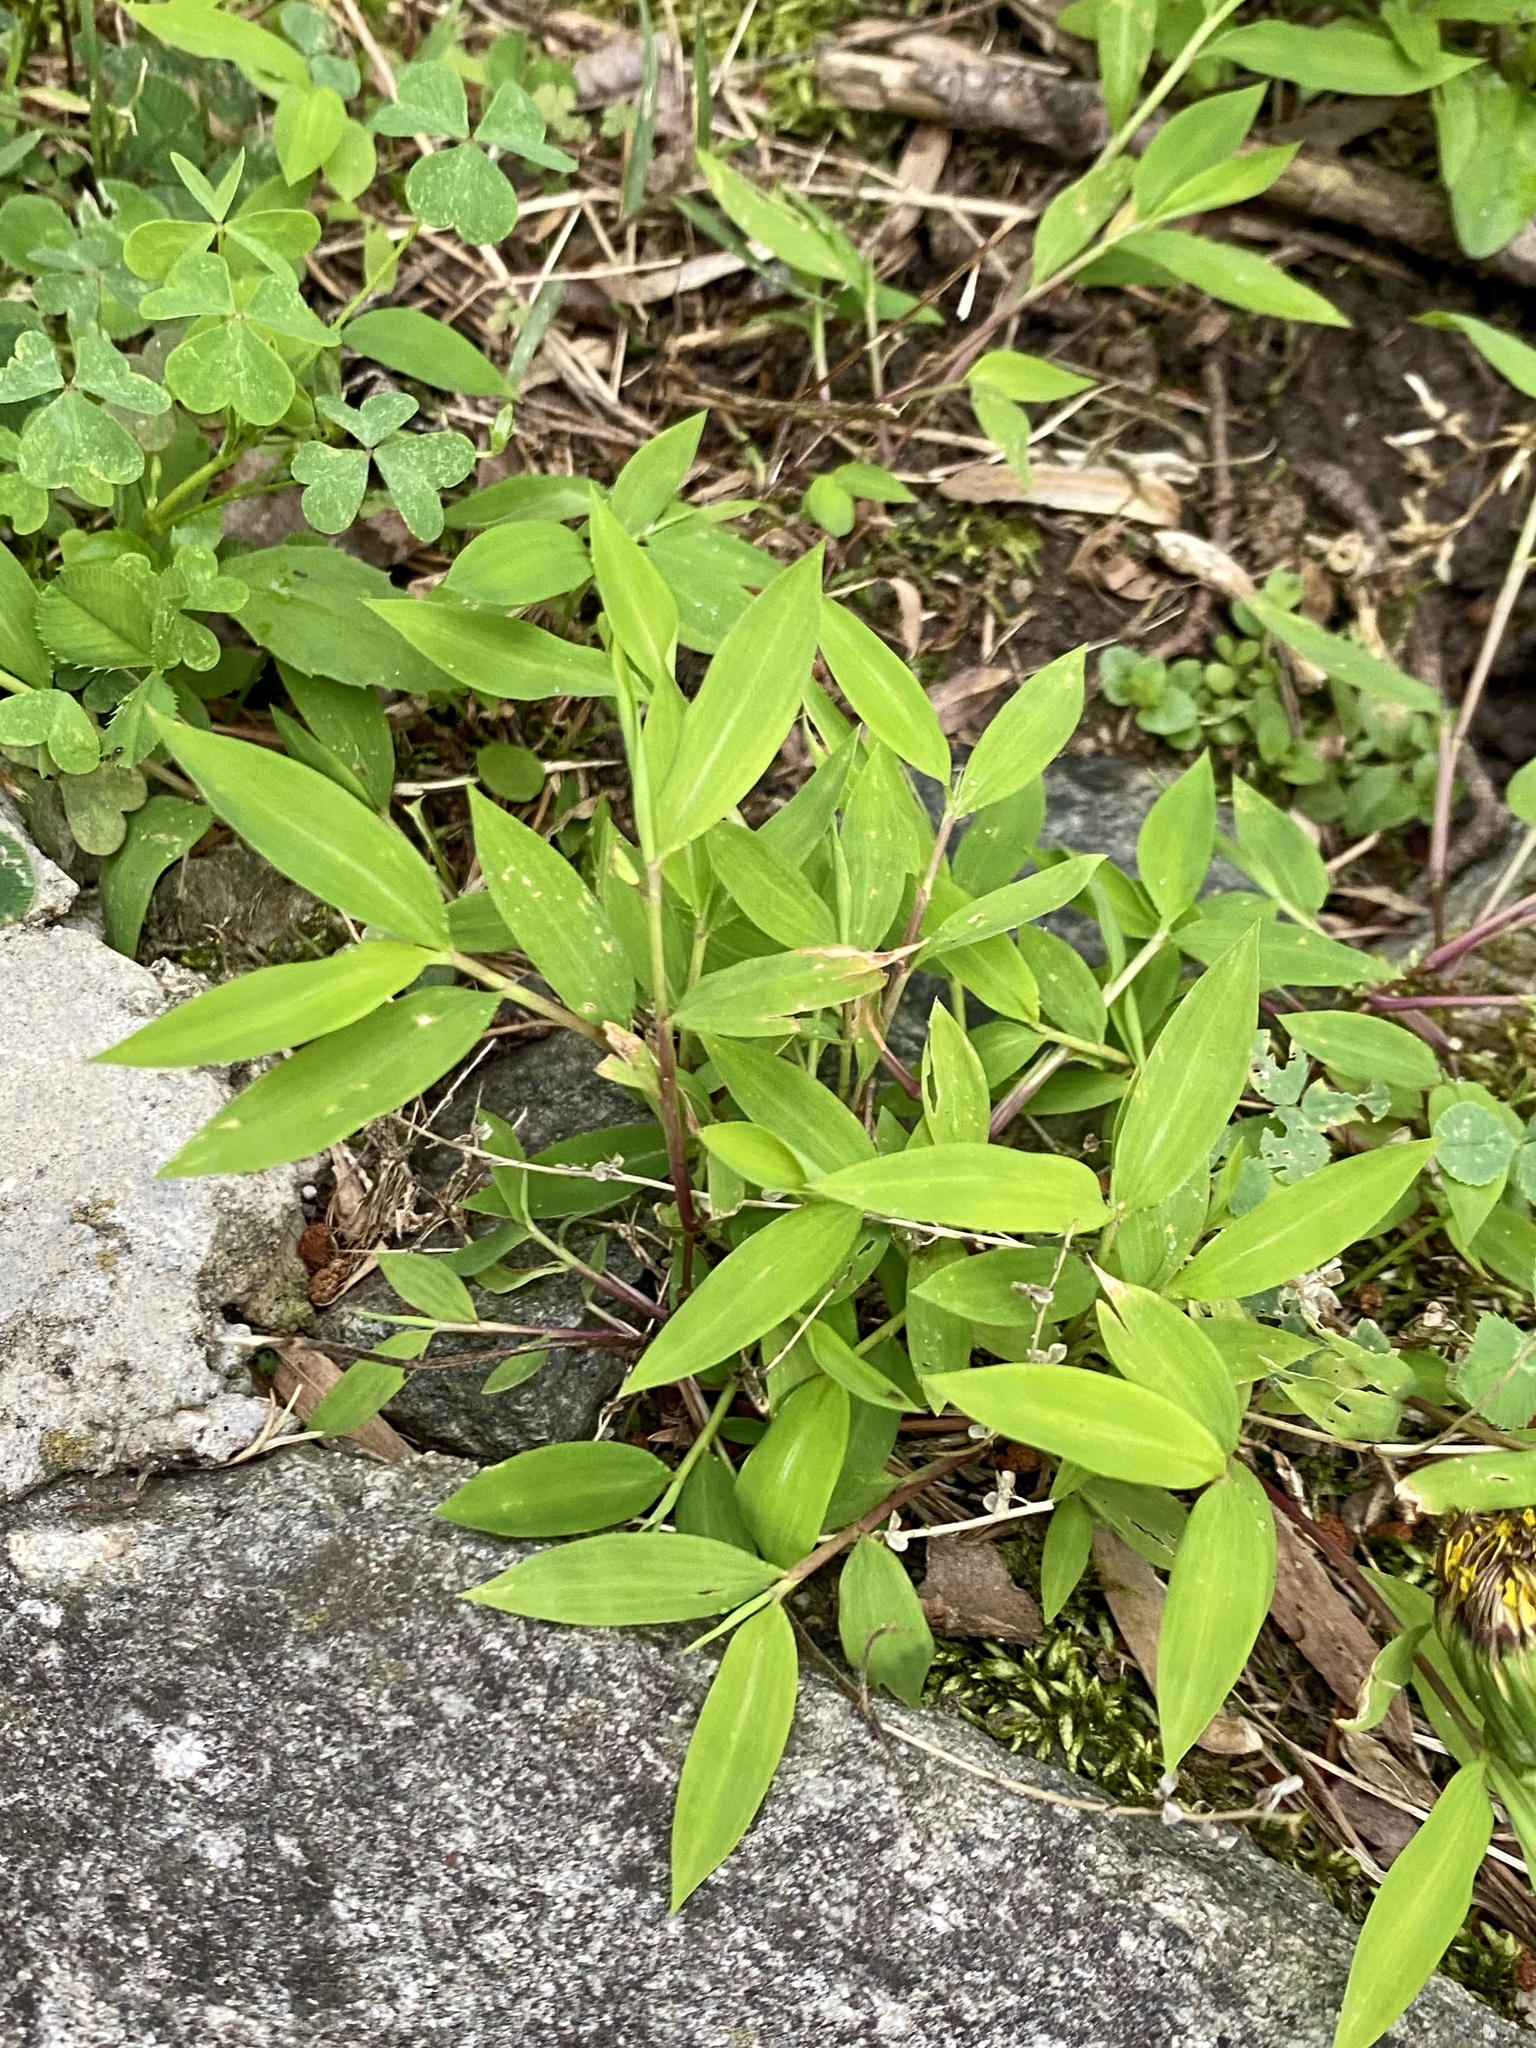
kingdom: Plantae
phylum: Tracheophyta
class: Liliopsida
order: Poales
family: Poaceae
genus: Microstegium
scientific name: Microstegium vimineum
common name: Japanese stiltgrass
